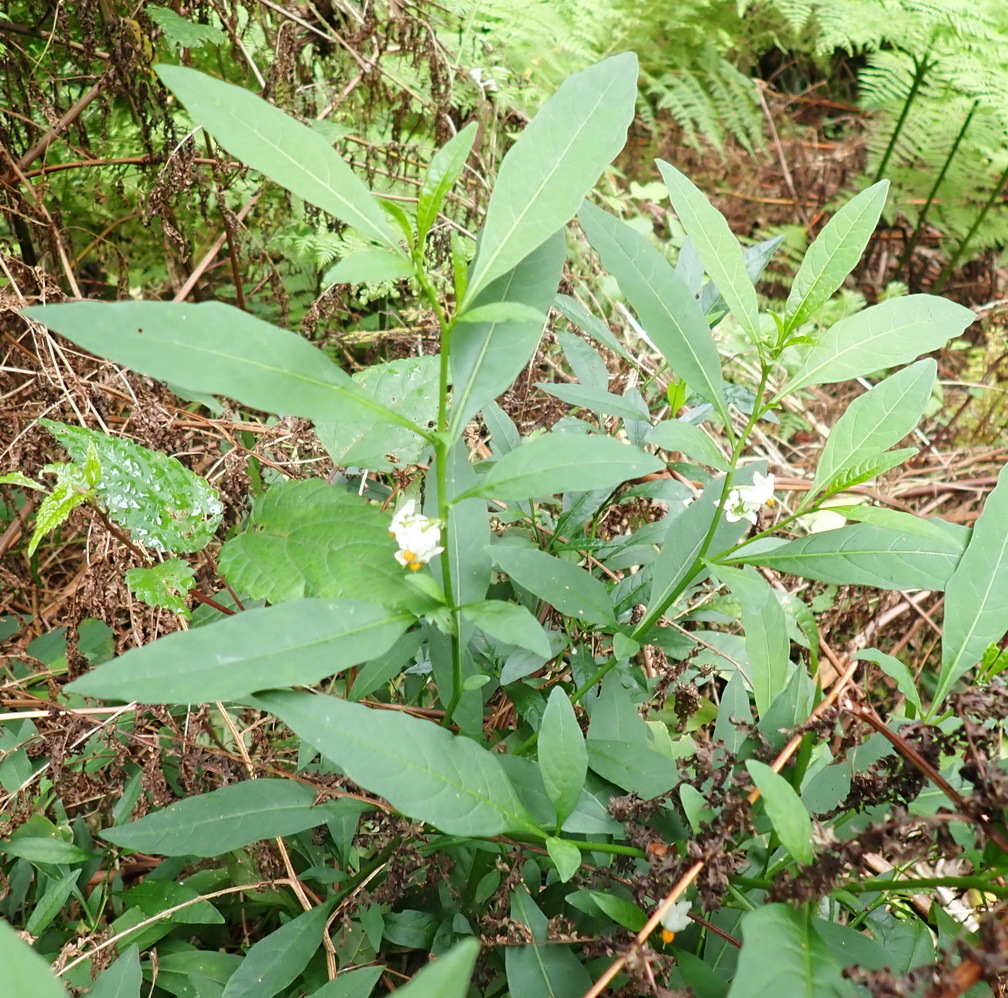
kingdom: Plantae
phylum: Tracheophyta
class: Magnoliopsida
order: Solanales
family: Solanaceae
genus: Solanum
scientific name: Solanum pseudocapsicum
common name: Jerusalem cherry
